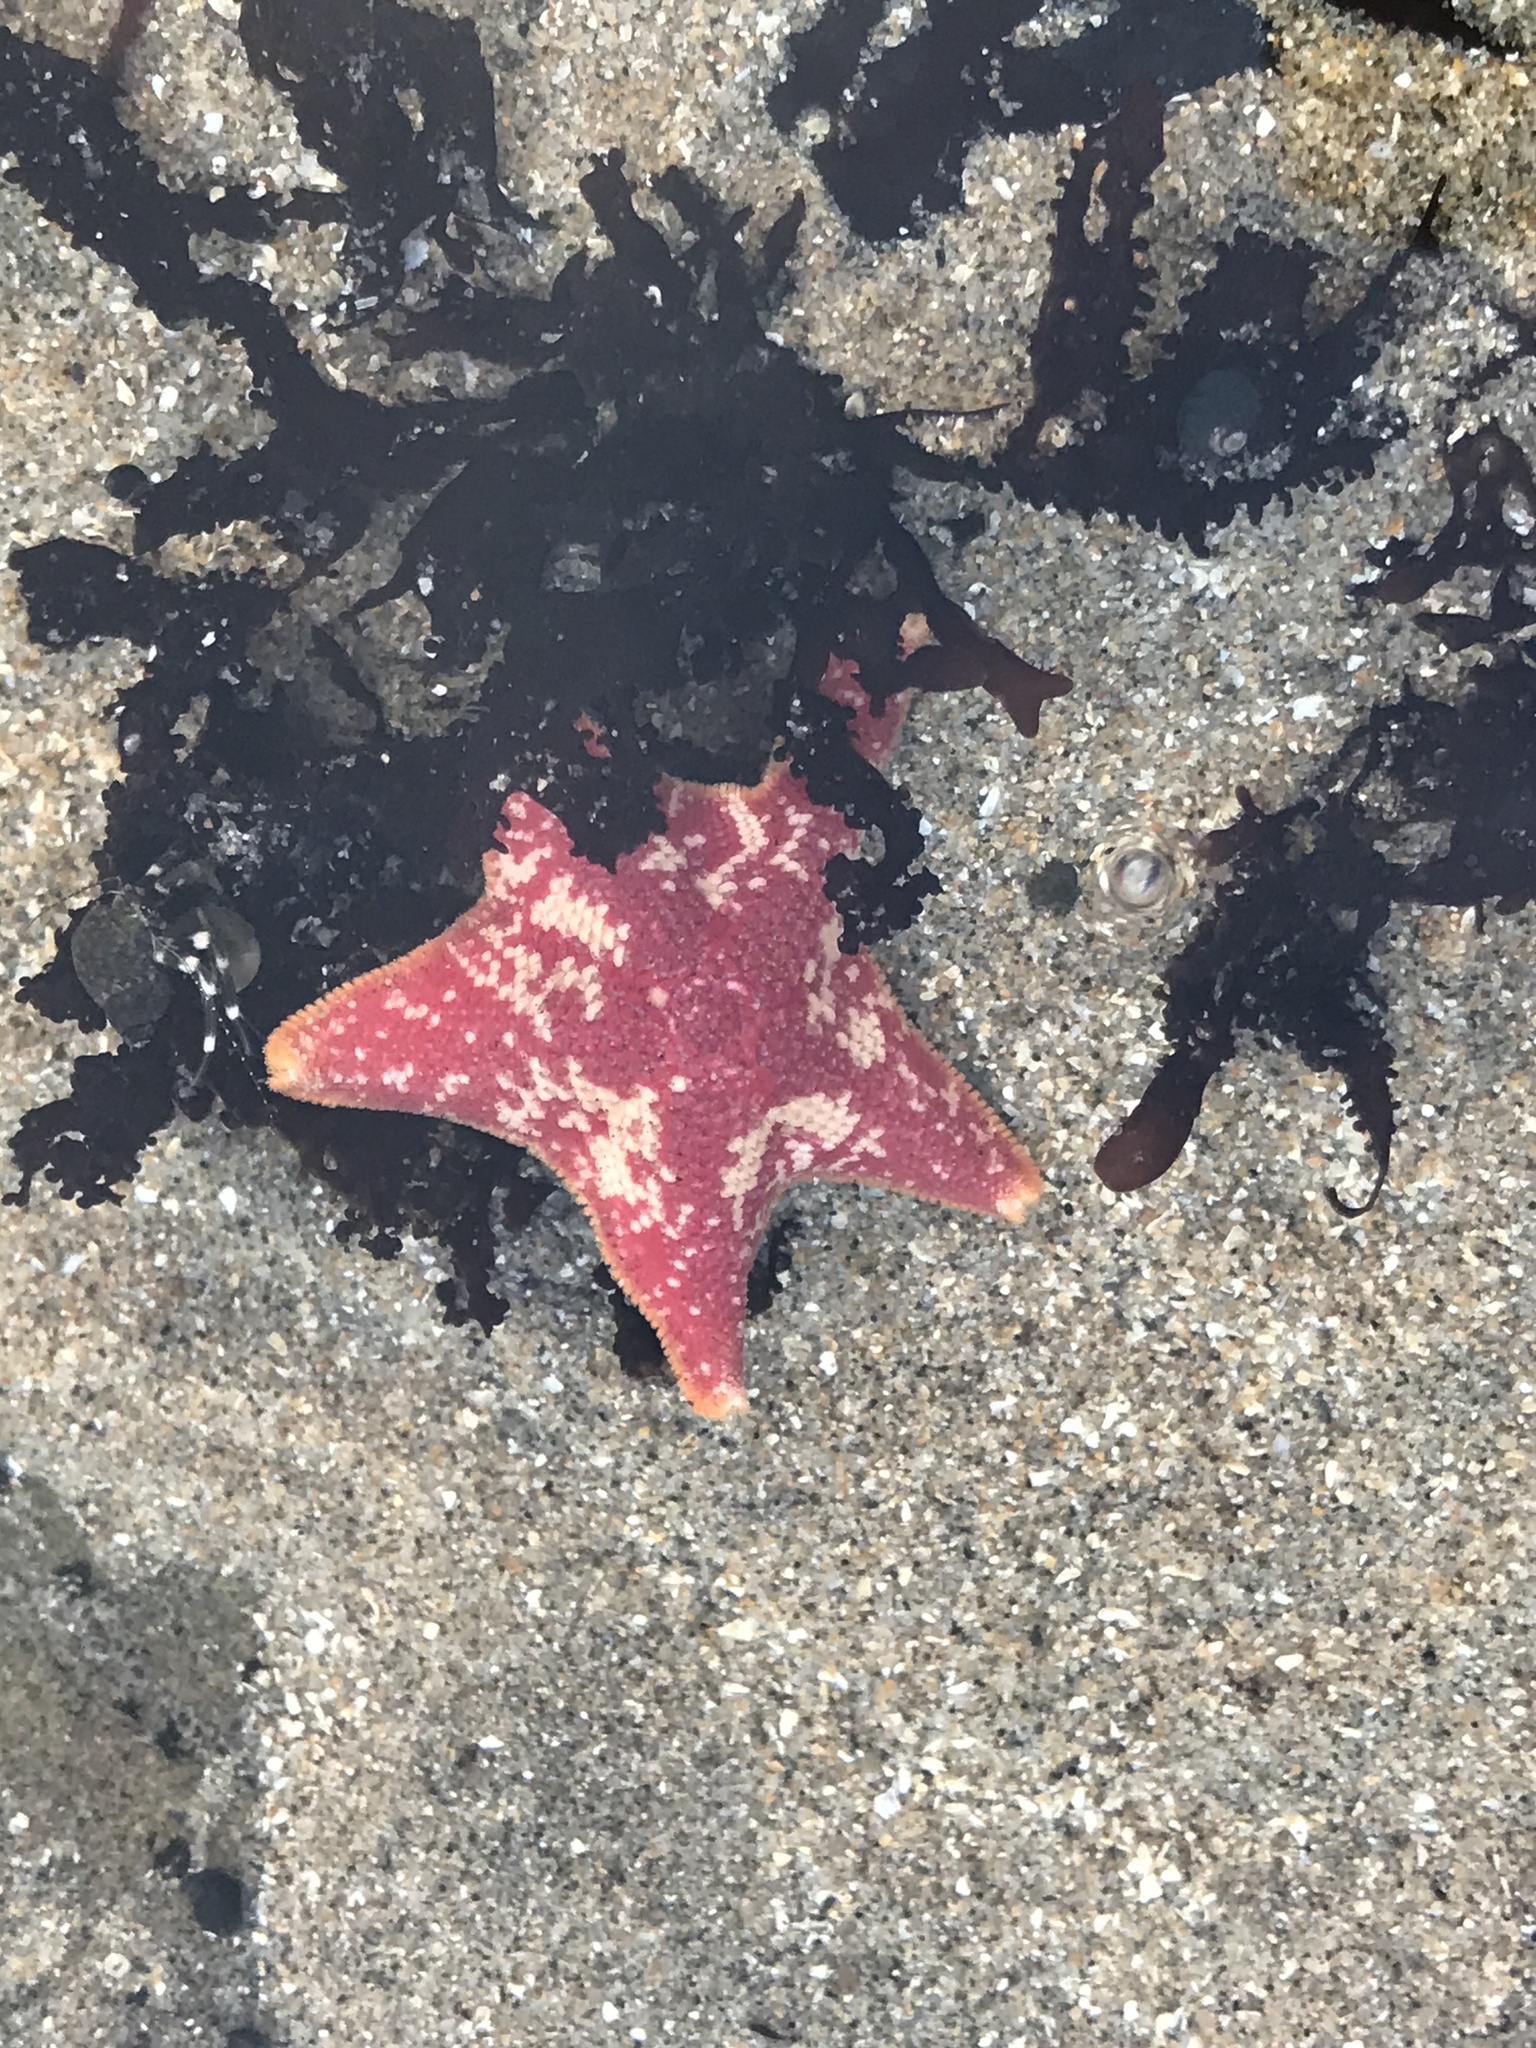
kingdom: Animalia
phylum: Echinodermata
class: Asteroidea
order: Valvatida
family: Asterinidae
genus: Patiria
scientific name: Patiria miniata
